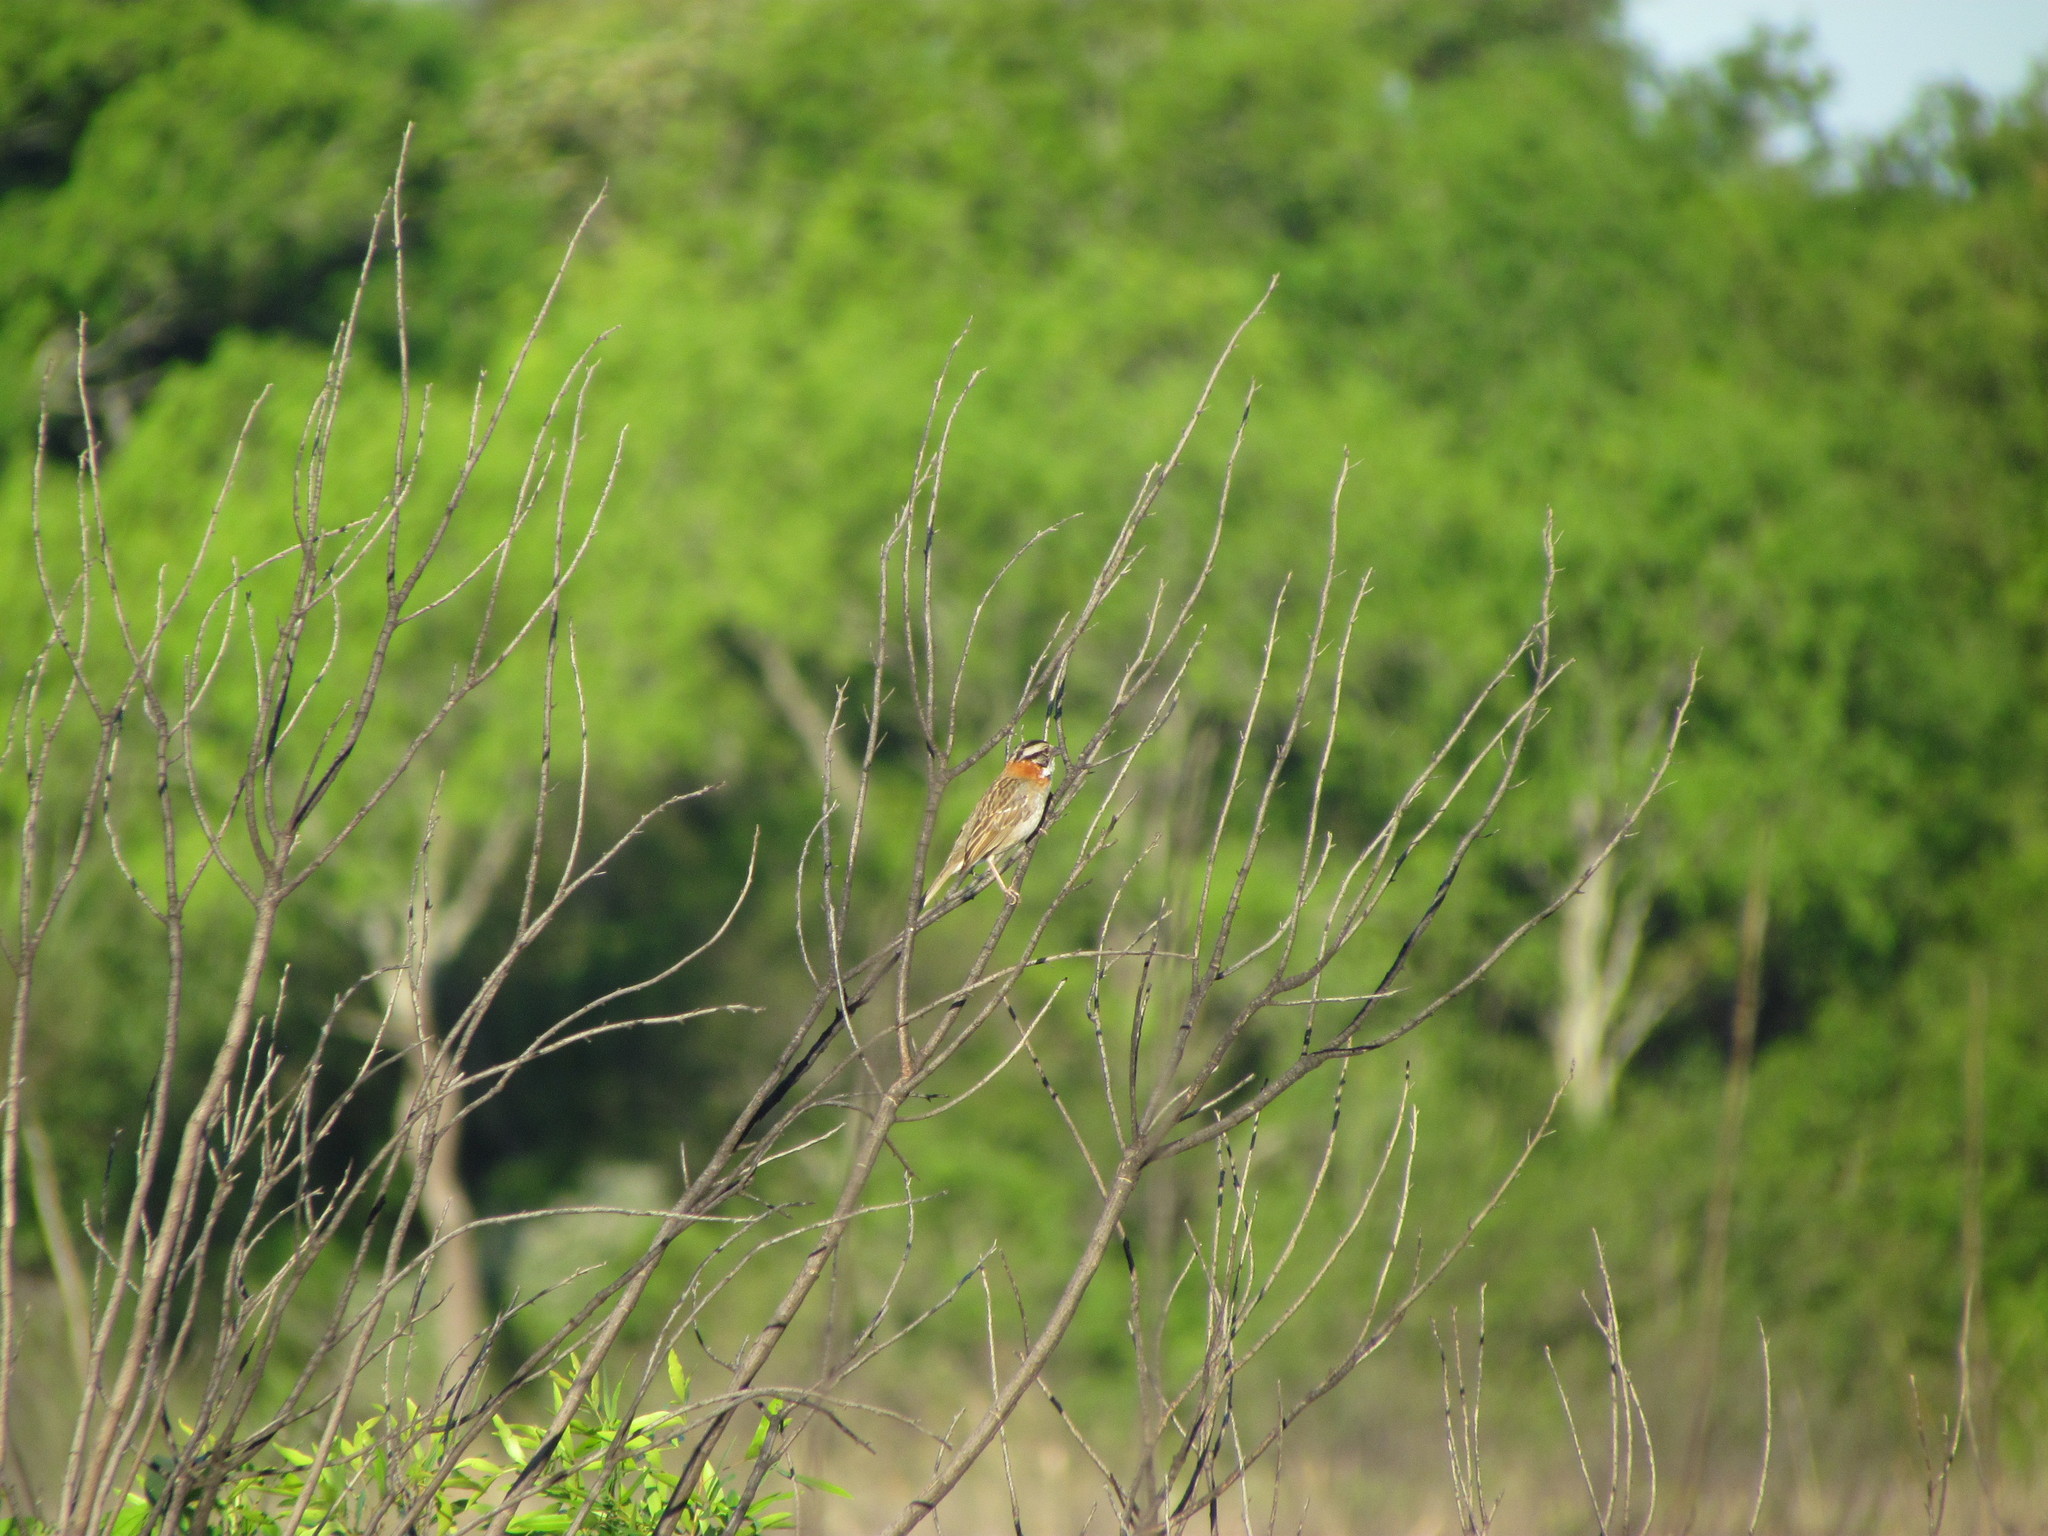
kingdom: Animalia
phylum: Chordata
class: Aves
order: Passeriformes
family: Passerellidae
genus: Zonotrichia
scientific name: Zonotrichia capensis
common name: Rufous-collared sparrow
